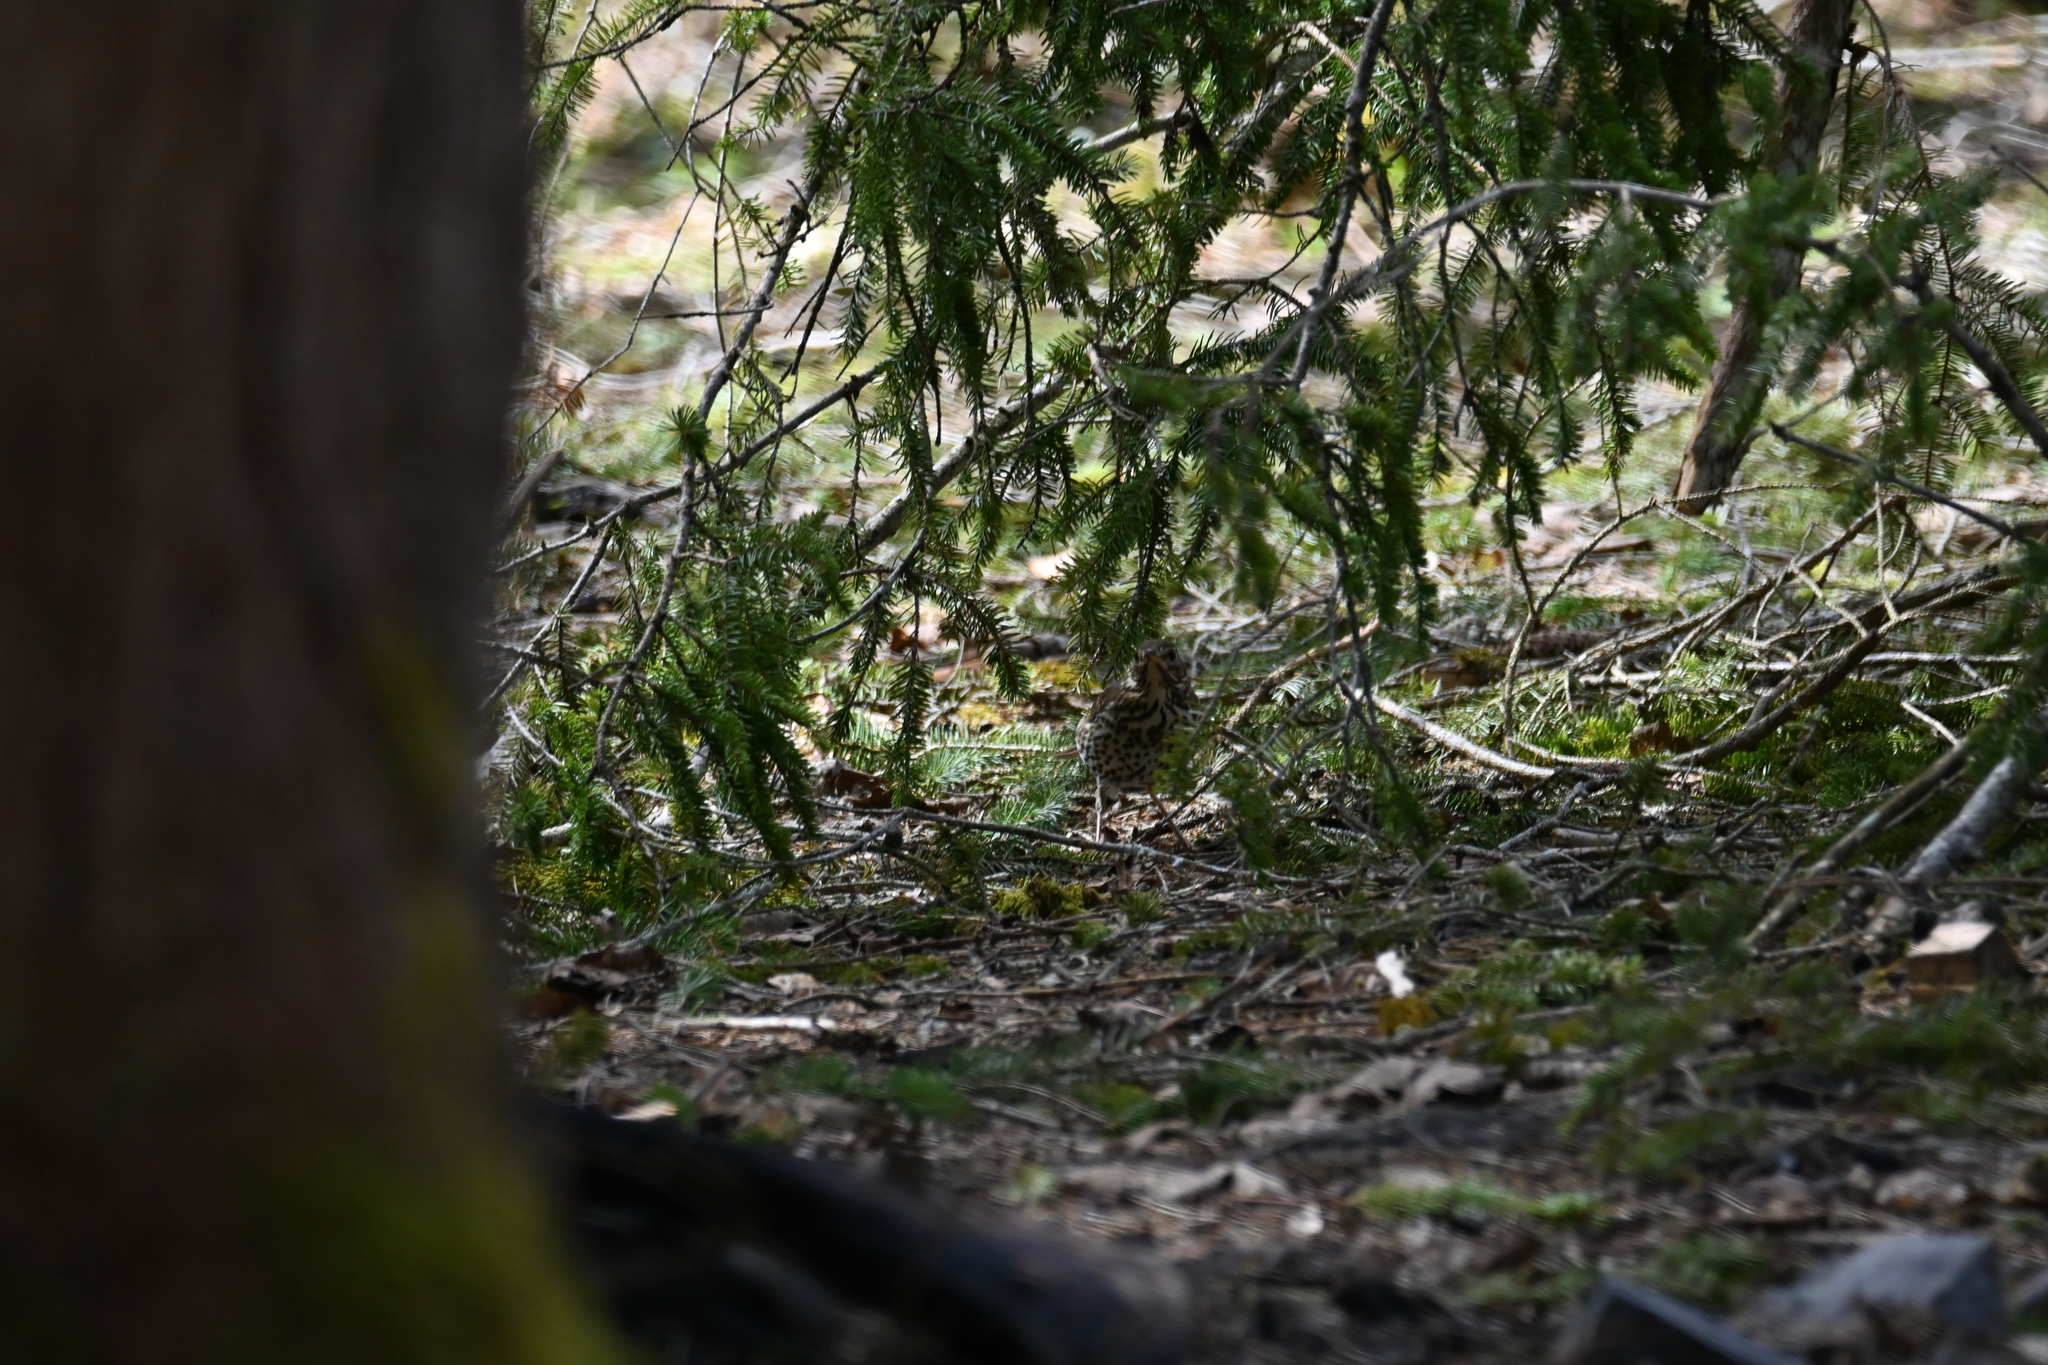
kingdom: Animalia
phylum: Chordata
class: Aves
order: Passeriformes
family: Turdidae
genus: Turdus
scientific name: Turdus philomelos
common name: Song thrush
